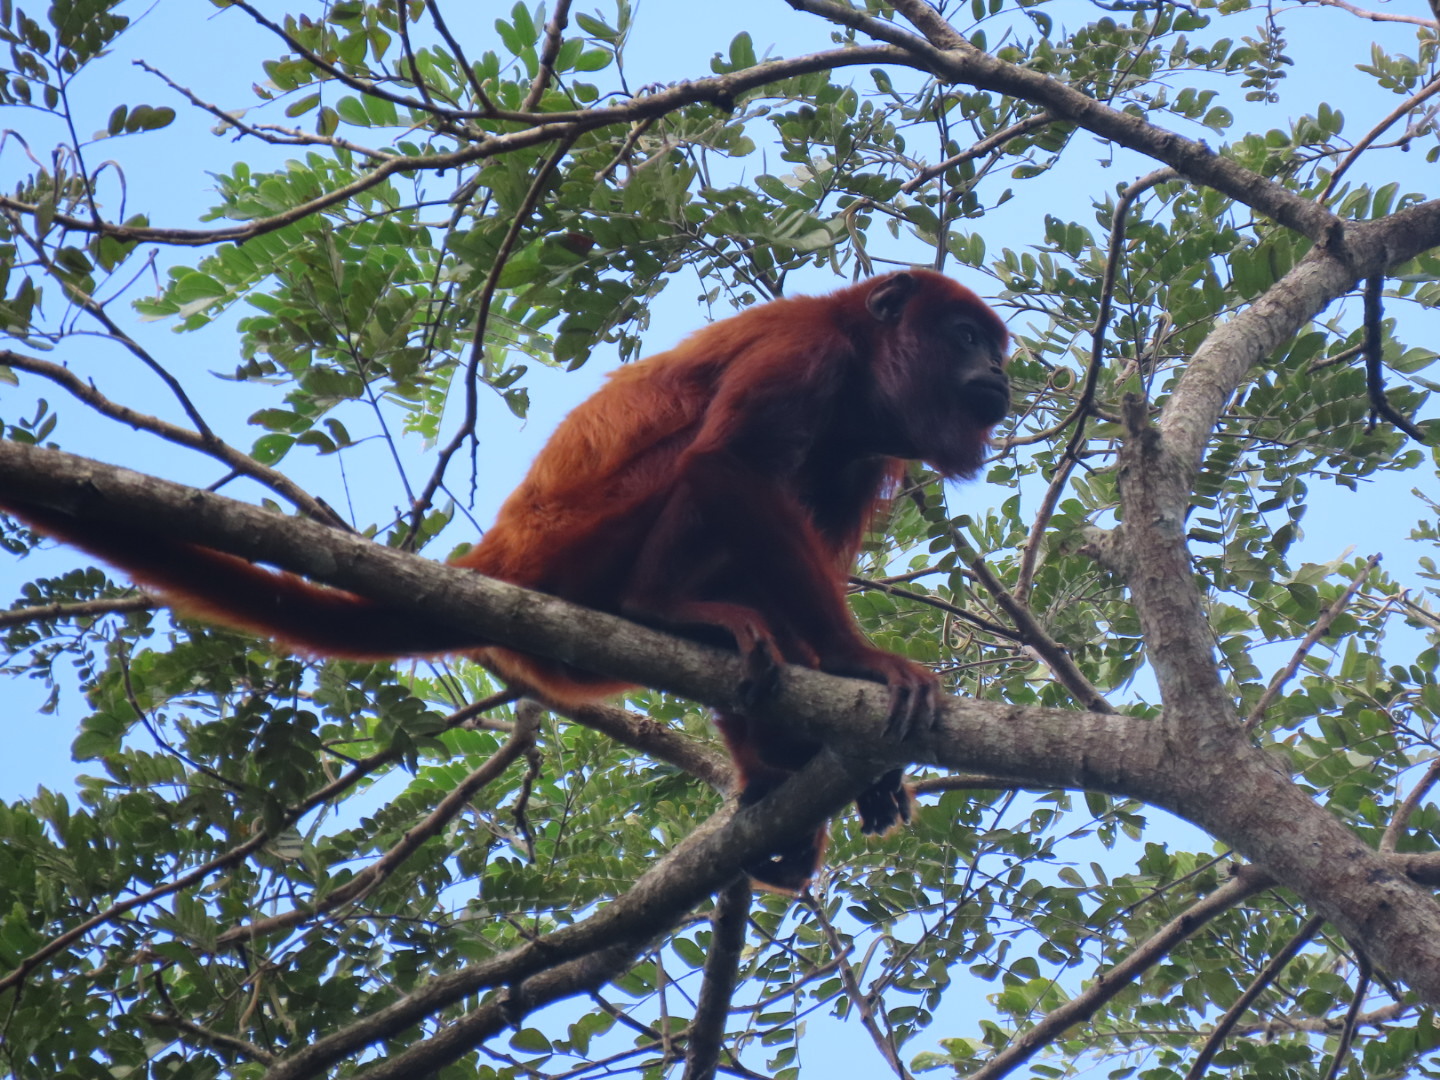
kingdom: Animalia
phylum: Chordata
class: Mammalia
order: Primates
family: Atelidae
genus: Alouatta
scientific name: Alouatta seniculus
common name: Venezuelan red howler
